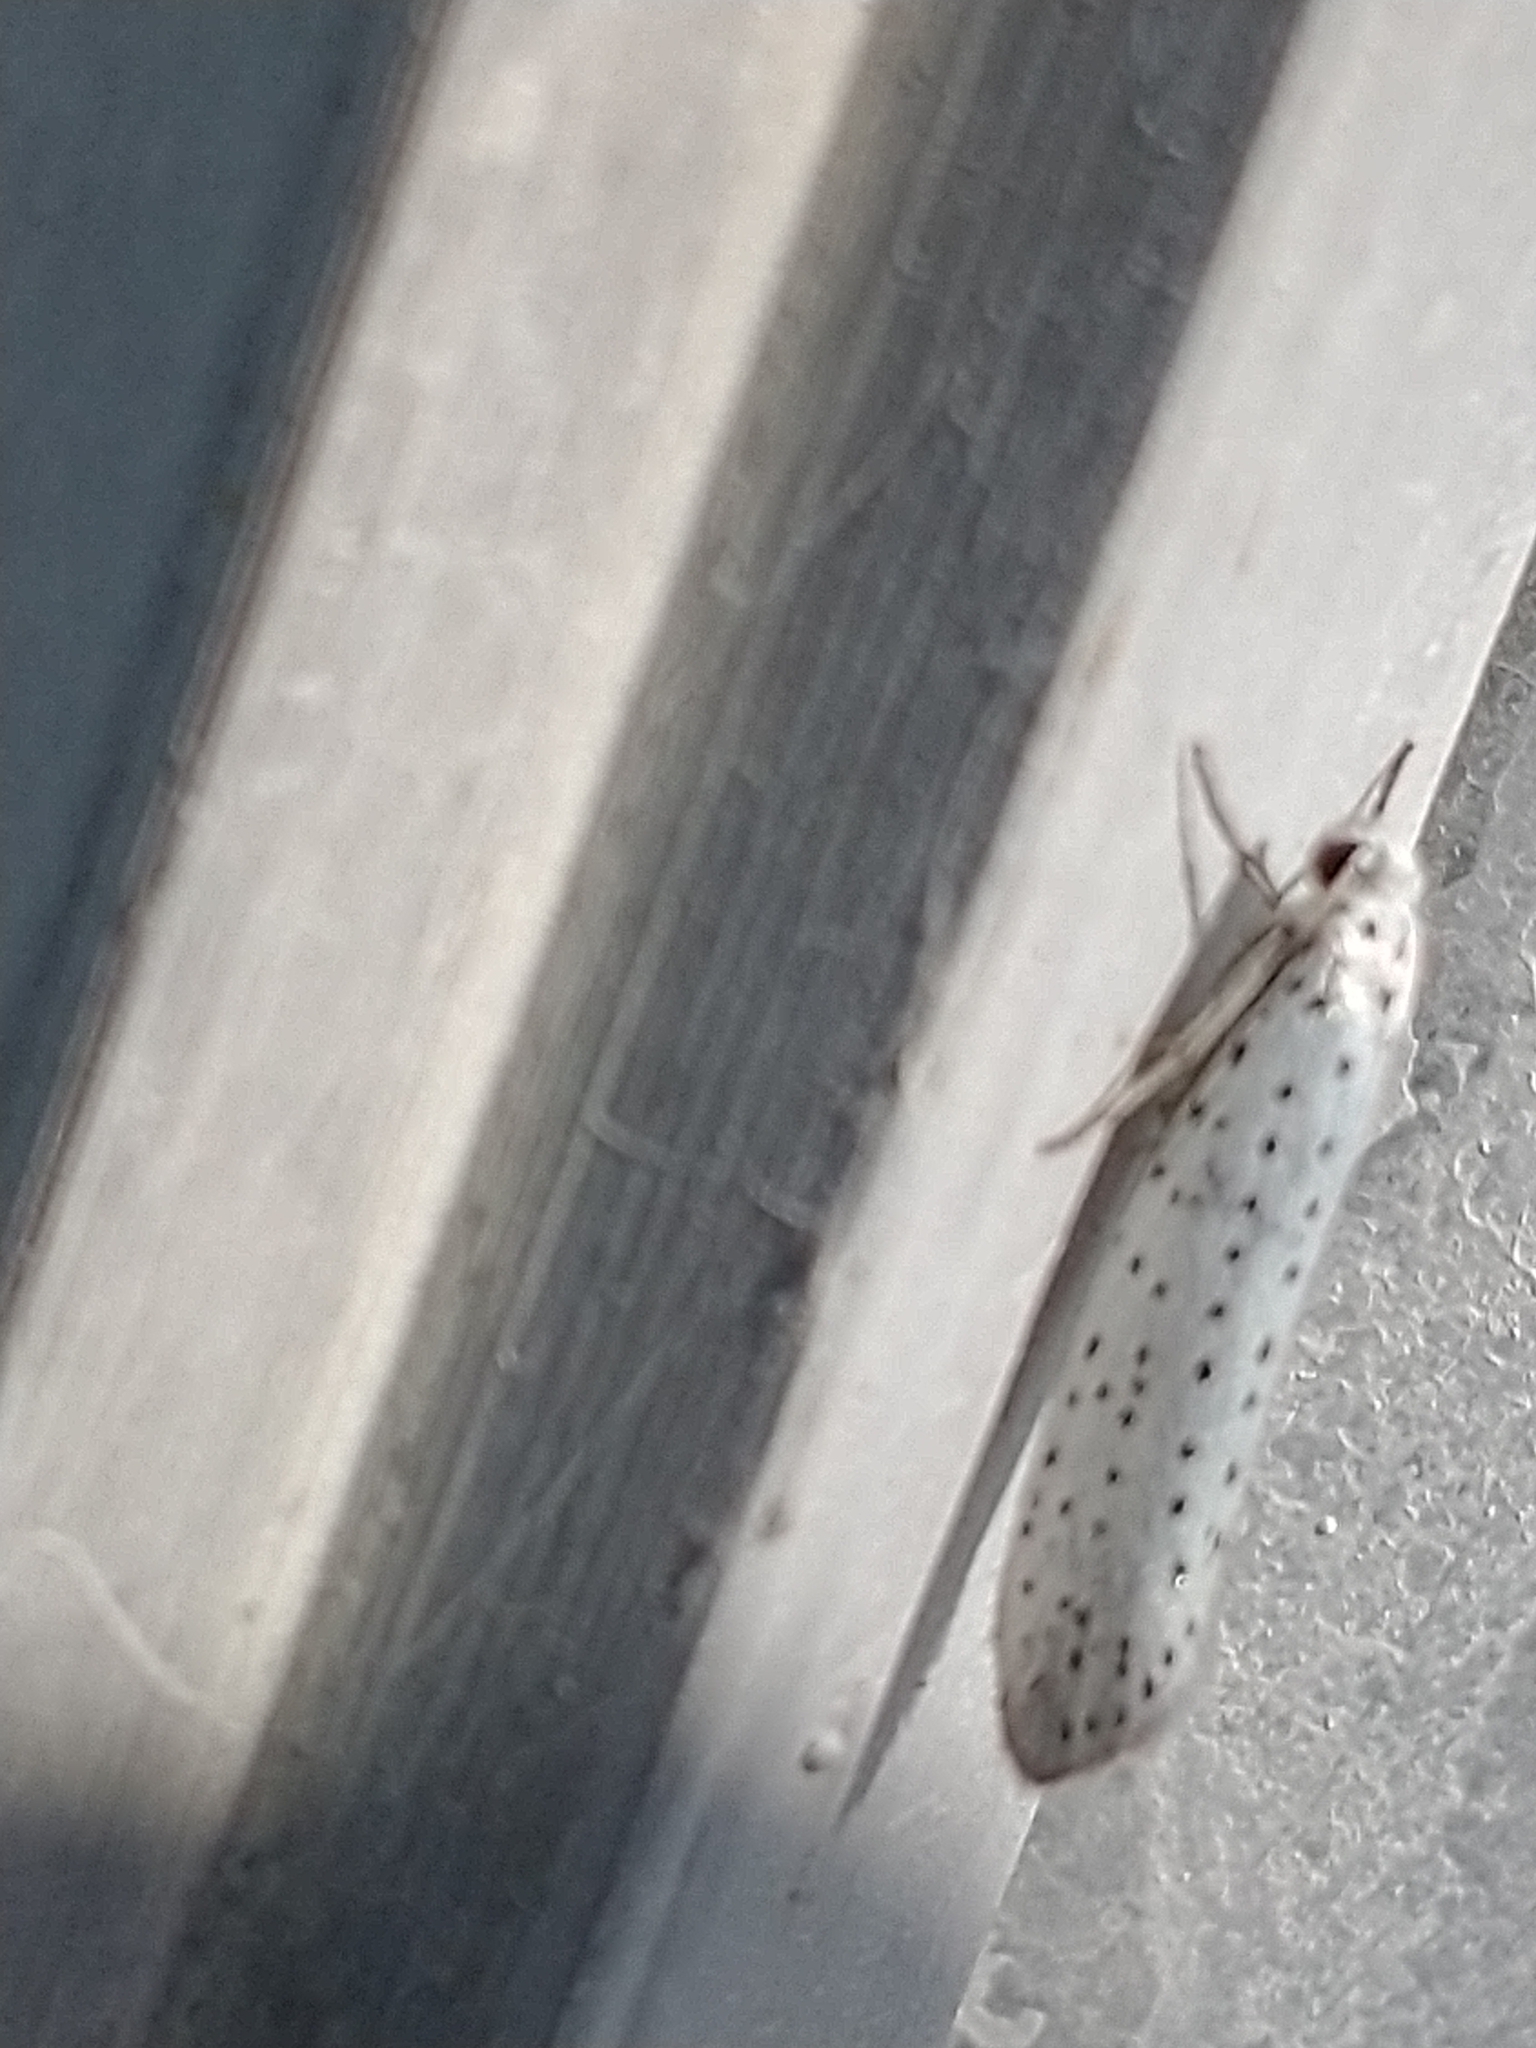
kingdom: Animalia
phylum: Arthropoda
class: Insecta
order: Lepidoptera
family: Yponomeutidae
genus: Yponomeuta
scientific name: Yponomeuta evonymella
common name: Bird-cherry ermine
